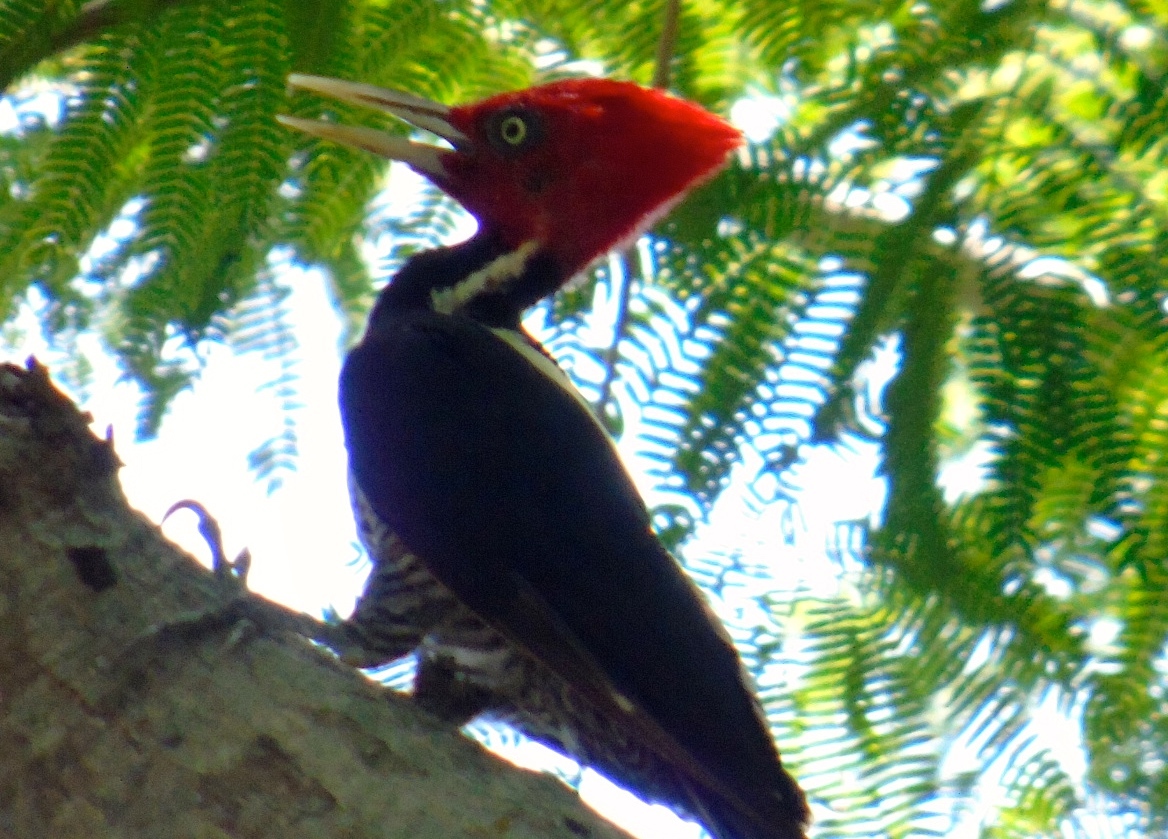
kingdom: Animalia
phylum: Chordata
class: Aves
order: Piciformes
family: Picidae
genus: Campephilus
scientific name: Campephilus guatemalensis
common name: Pale-billed woodpecker
